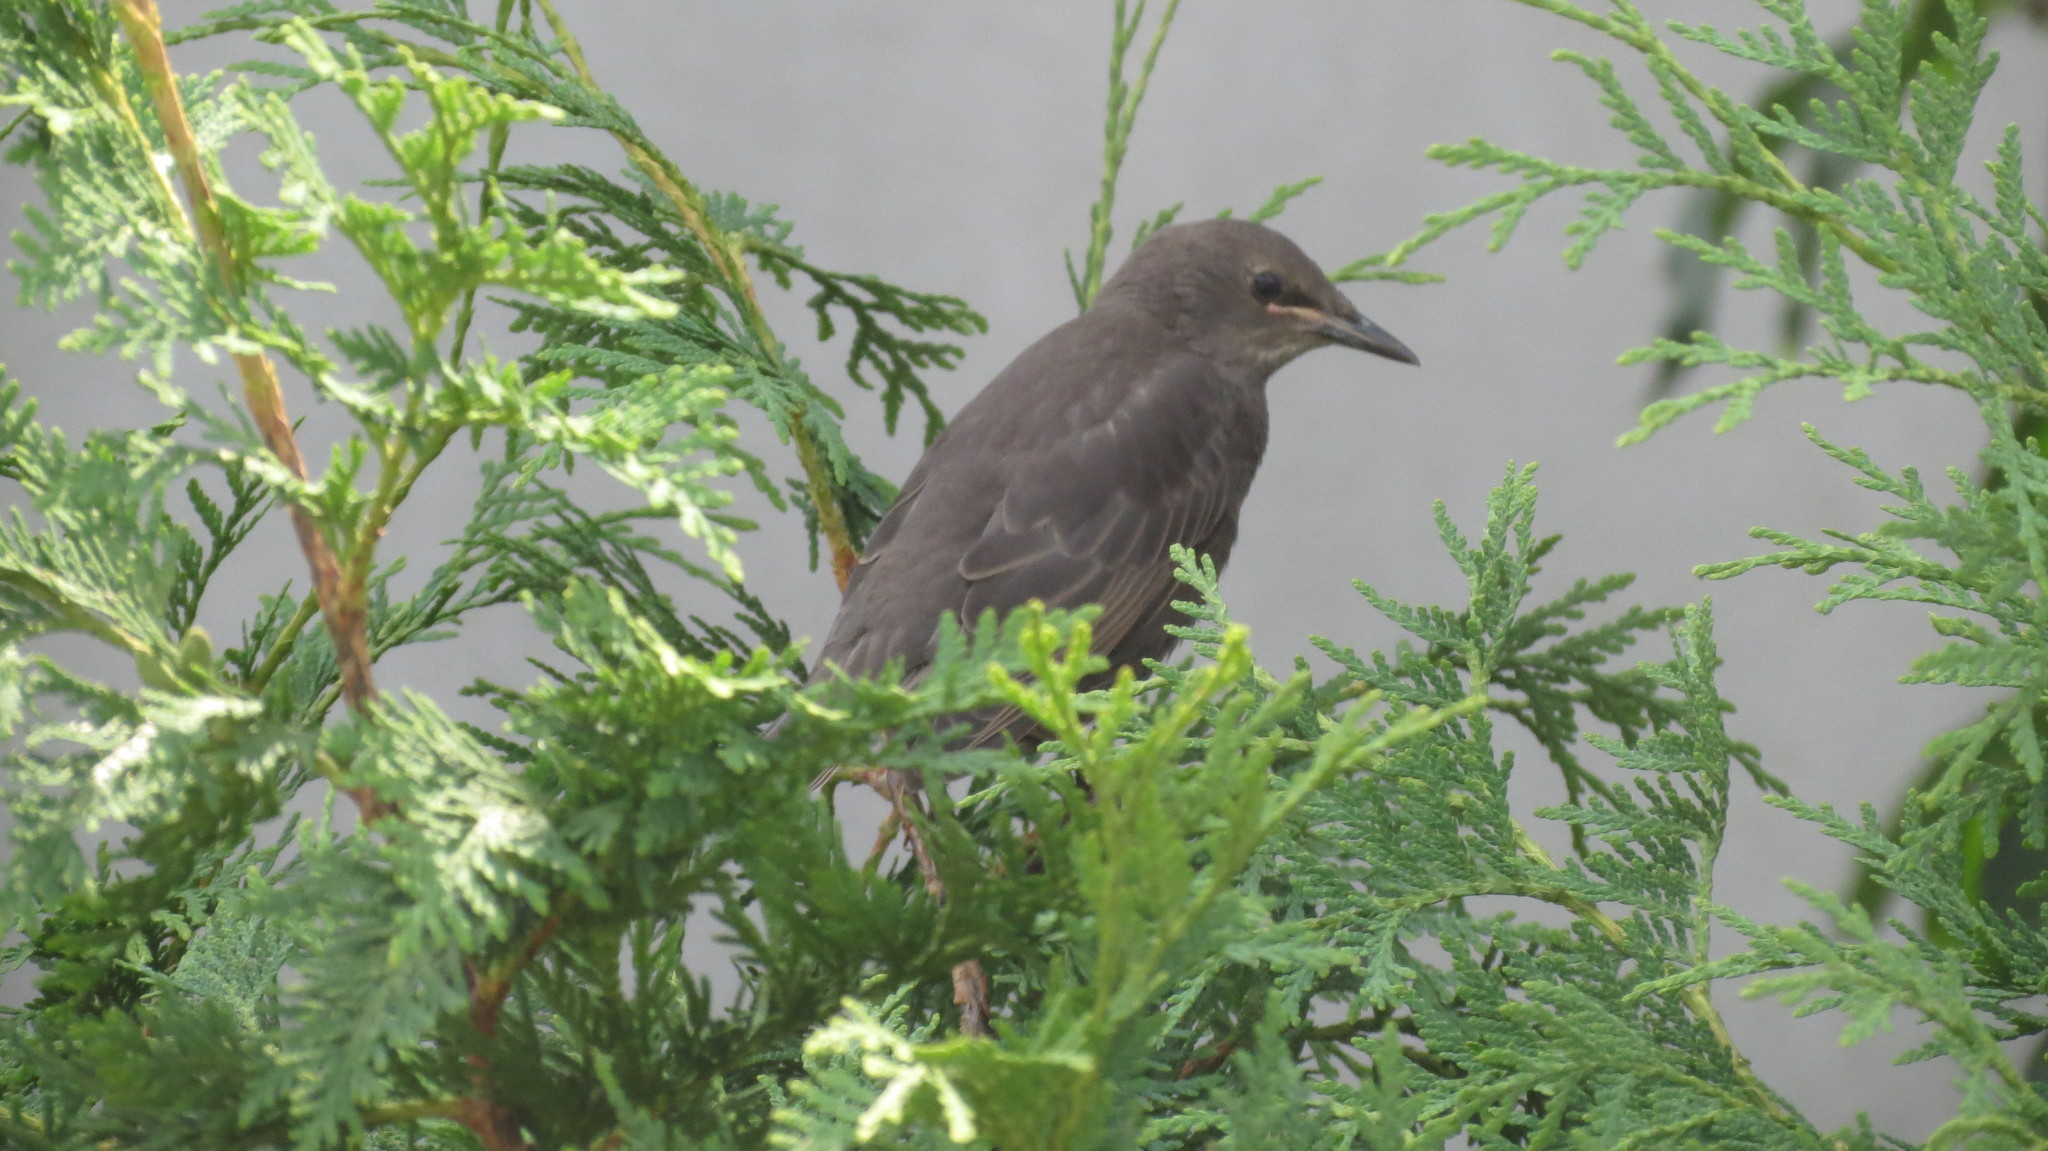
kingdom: Animalia
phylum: Chordata
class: Aves
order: Passeriformes
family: Sturnidae
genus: Sturnus
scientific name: Sturnus vulgaris
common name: Common starling
